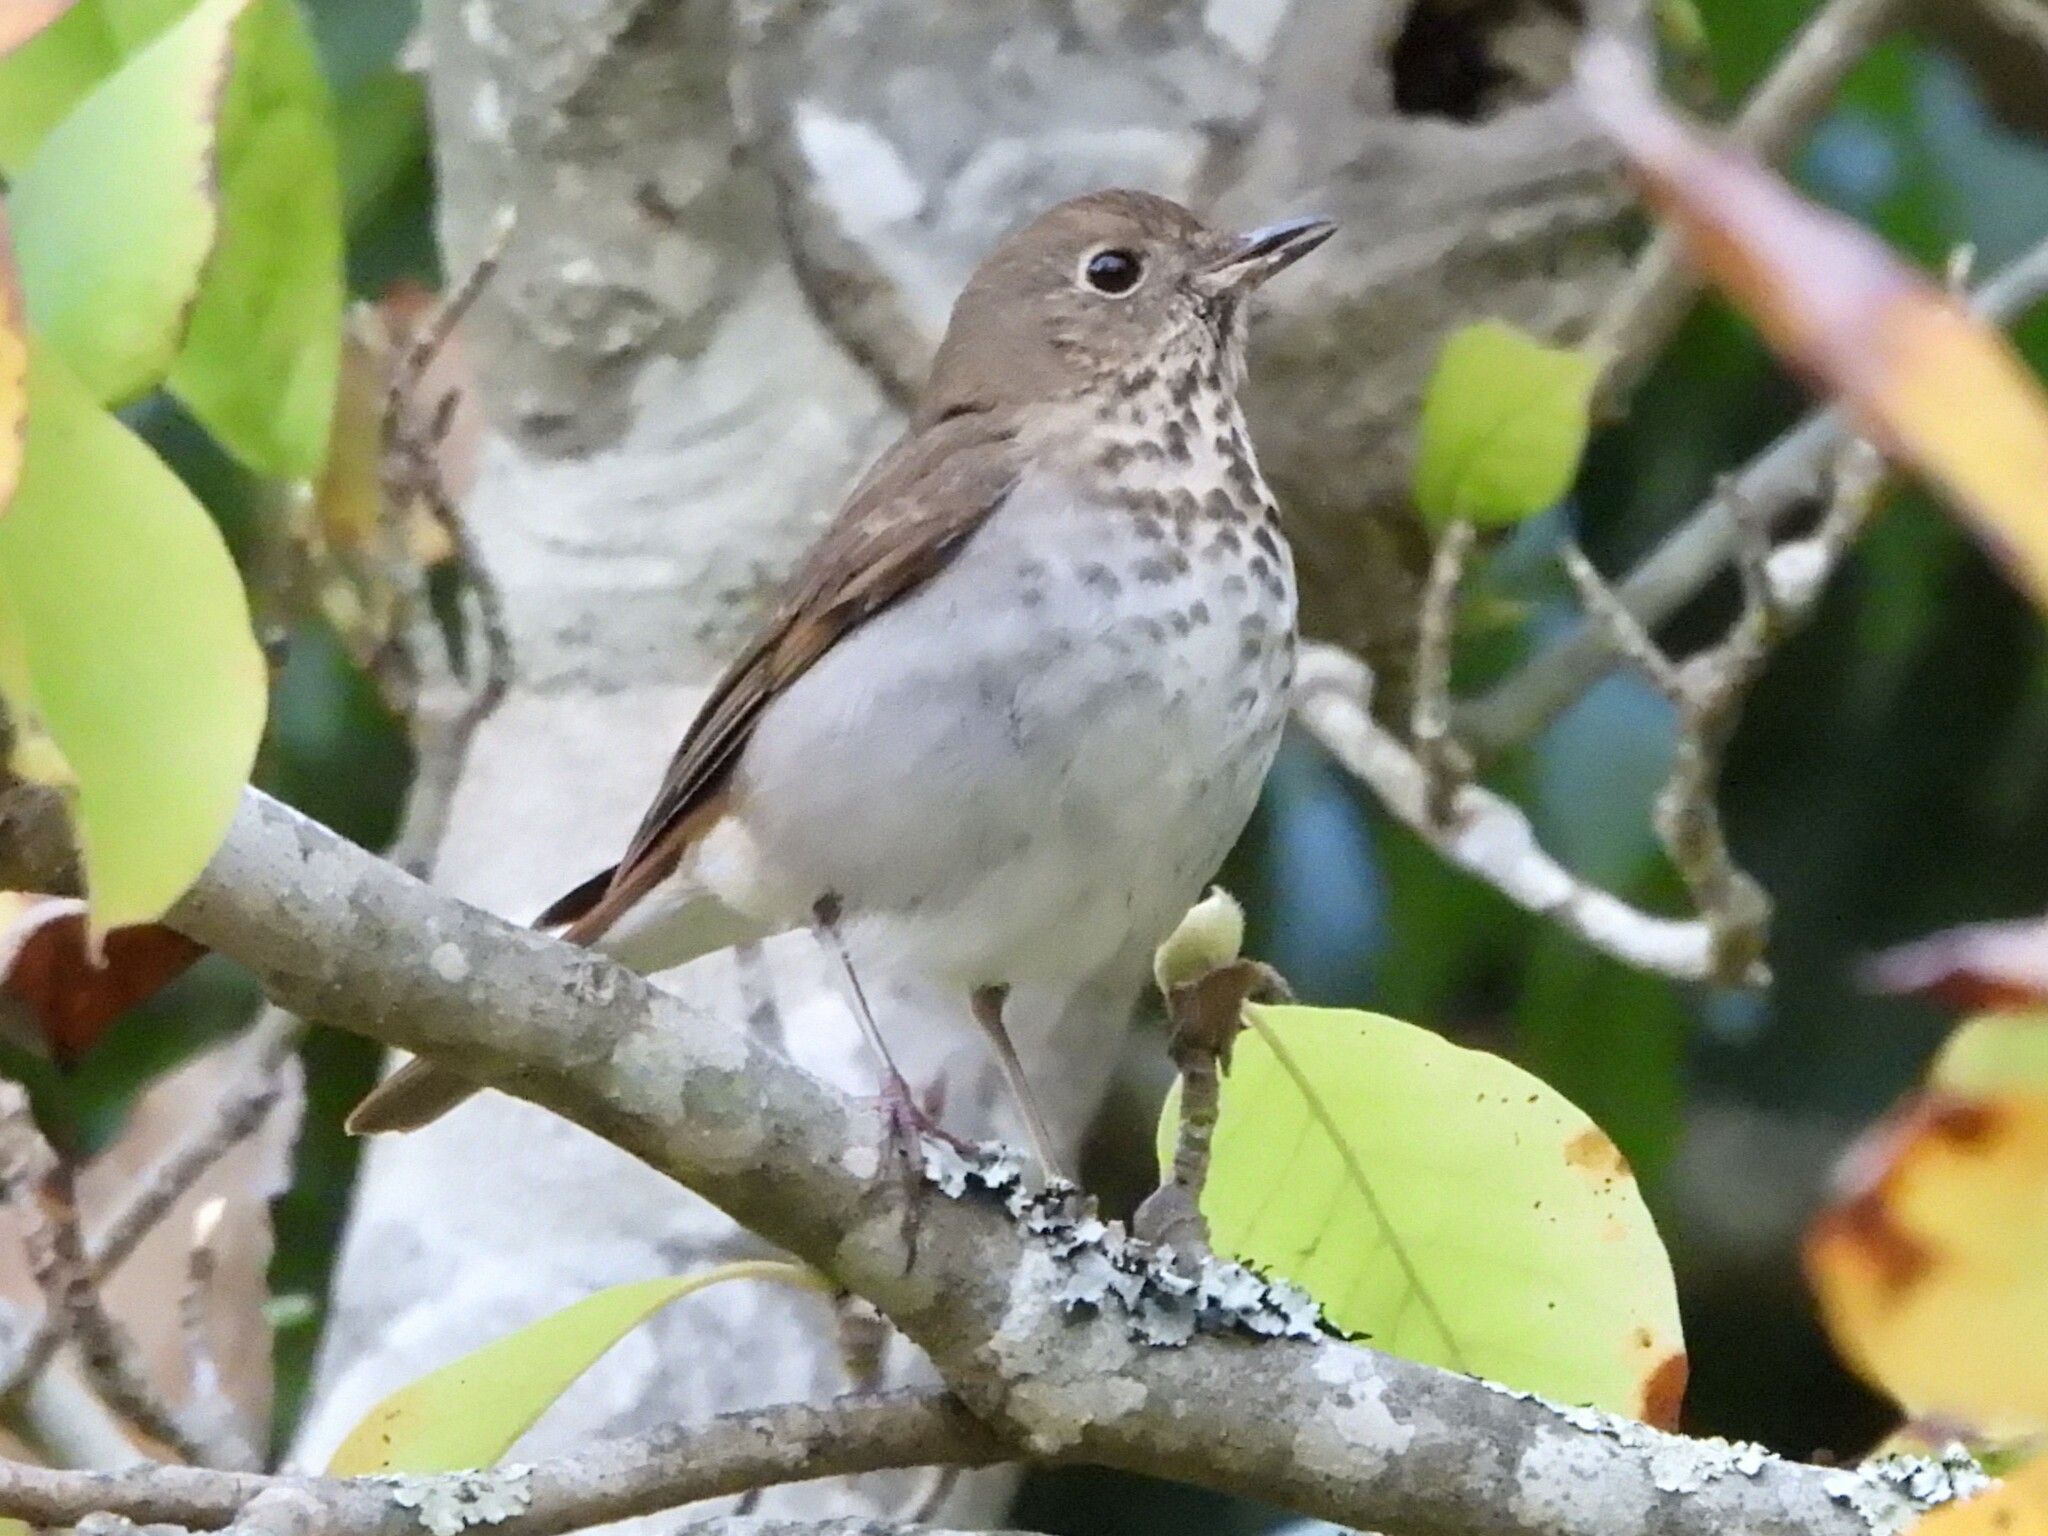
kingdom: Animalia
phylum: Chordata
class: Aves
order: Passeriformes
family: Turdidae
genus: Catharus
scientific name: Catharus guttatus
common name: Hermit thrush
